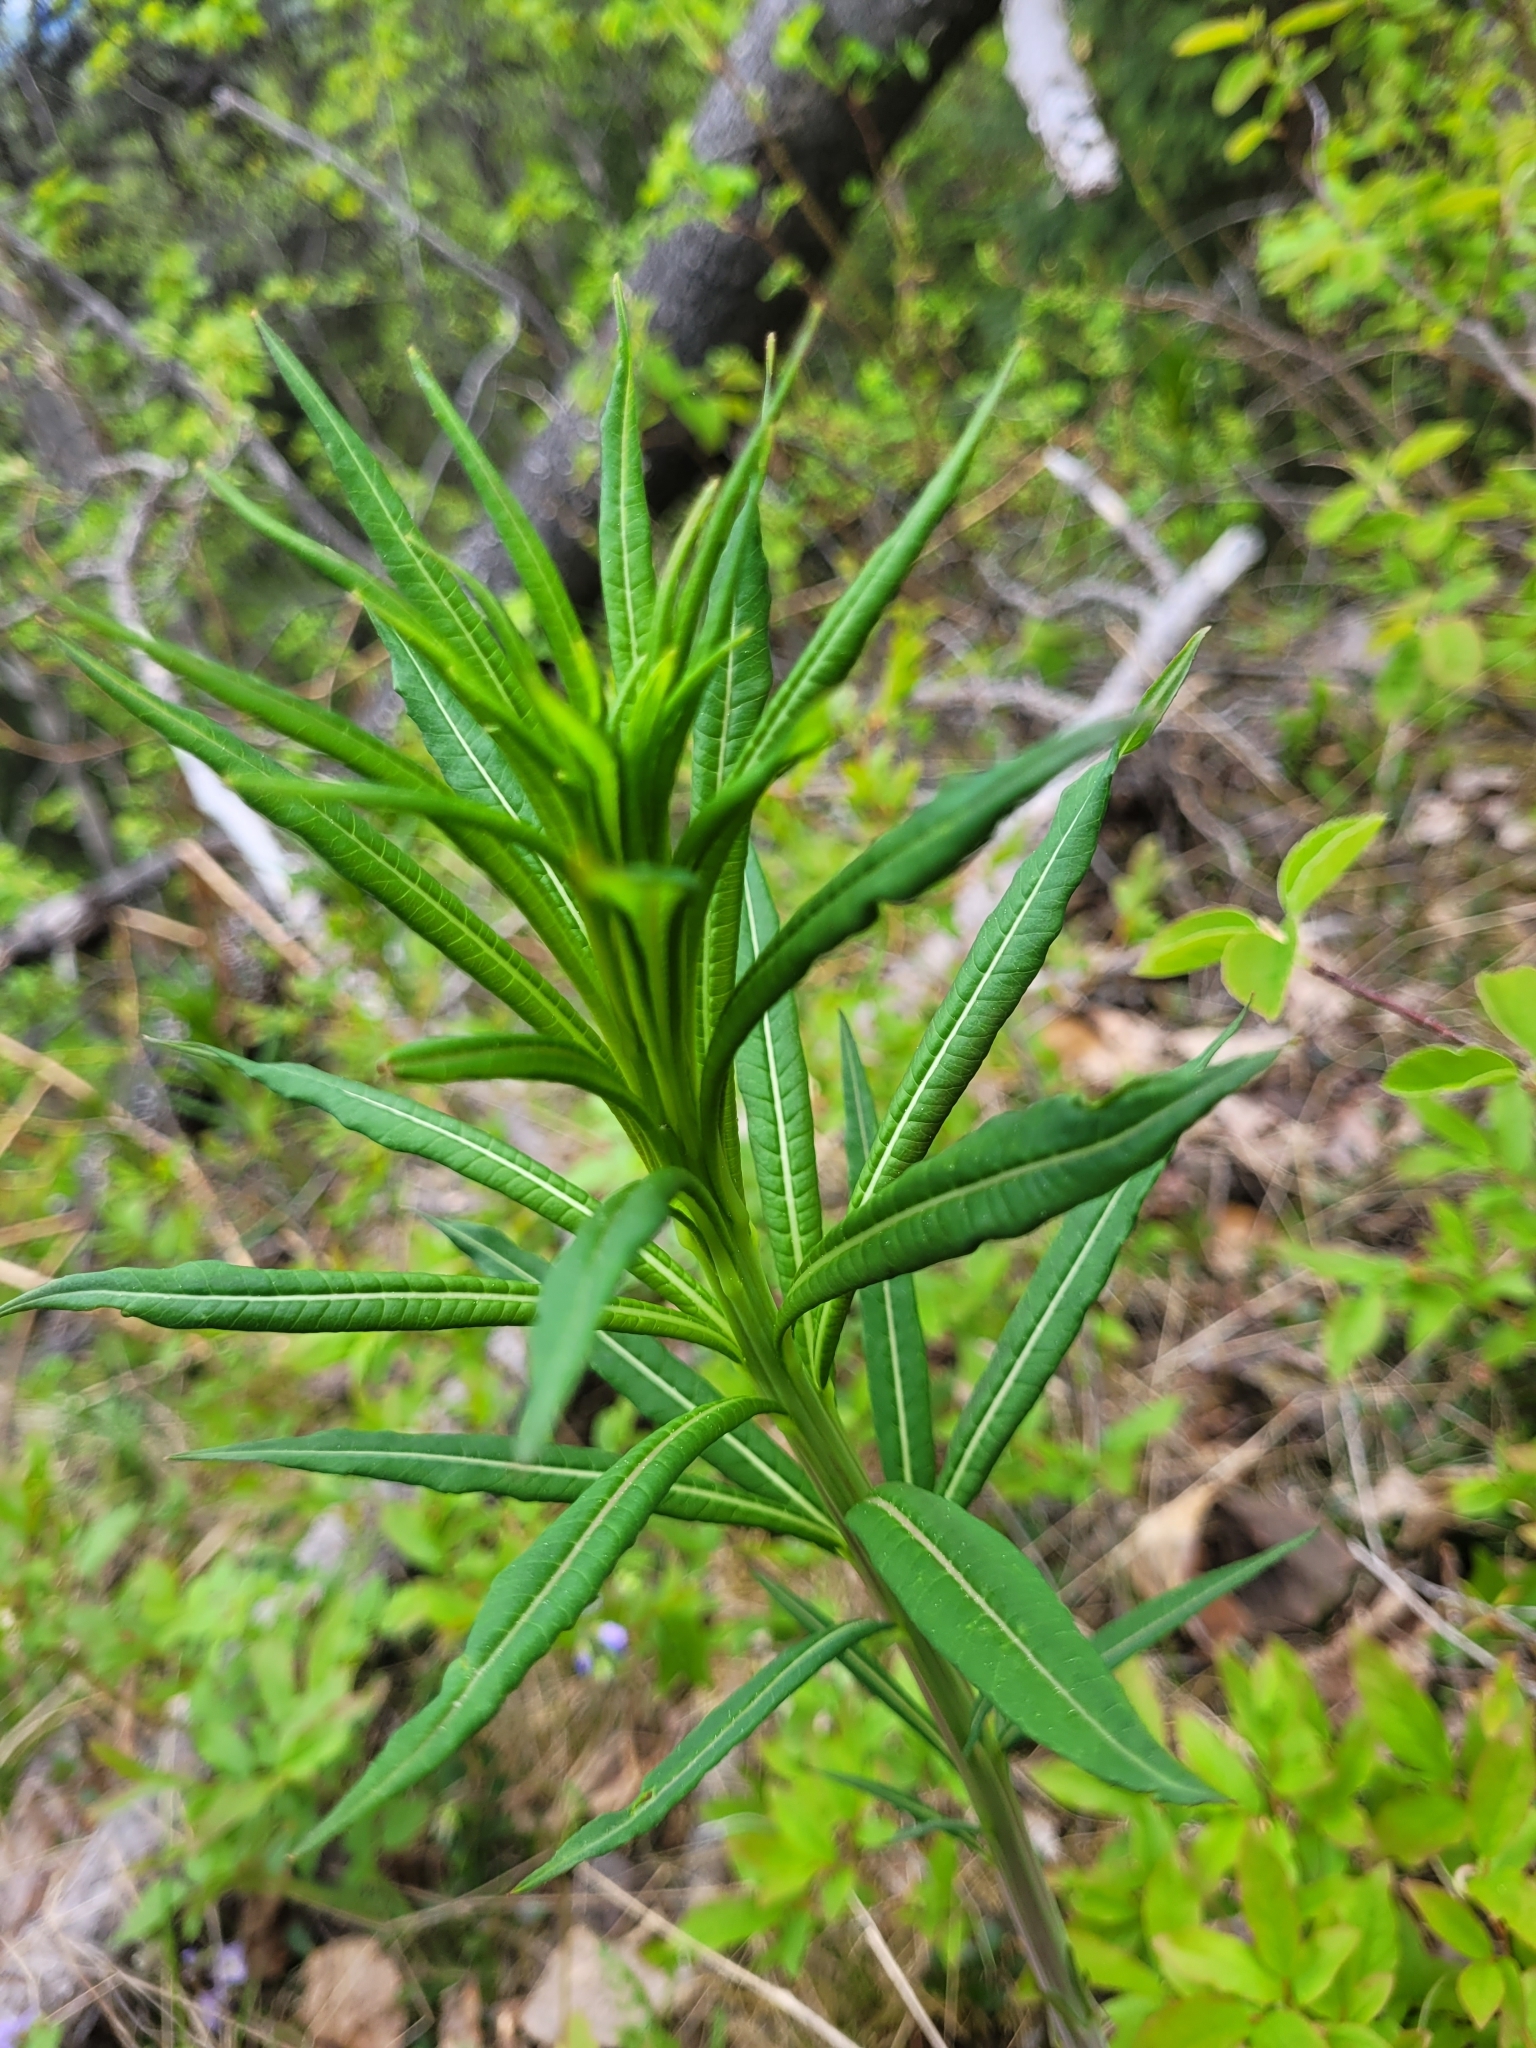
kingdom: Plantae
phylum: Tracheophyta
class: Magnoliopsida
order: Myrtales
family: Onagraceae
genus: Chamaenerion
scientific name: Chamaenerion angustifolium
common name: Fireweed
